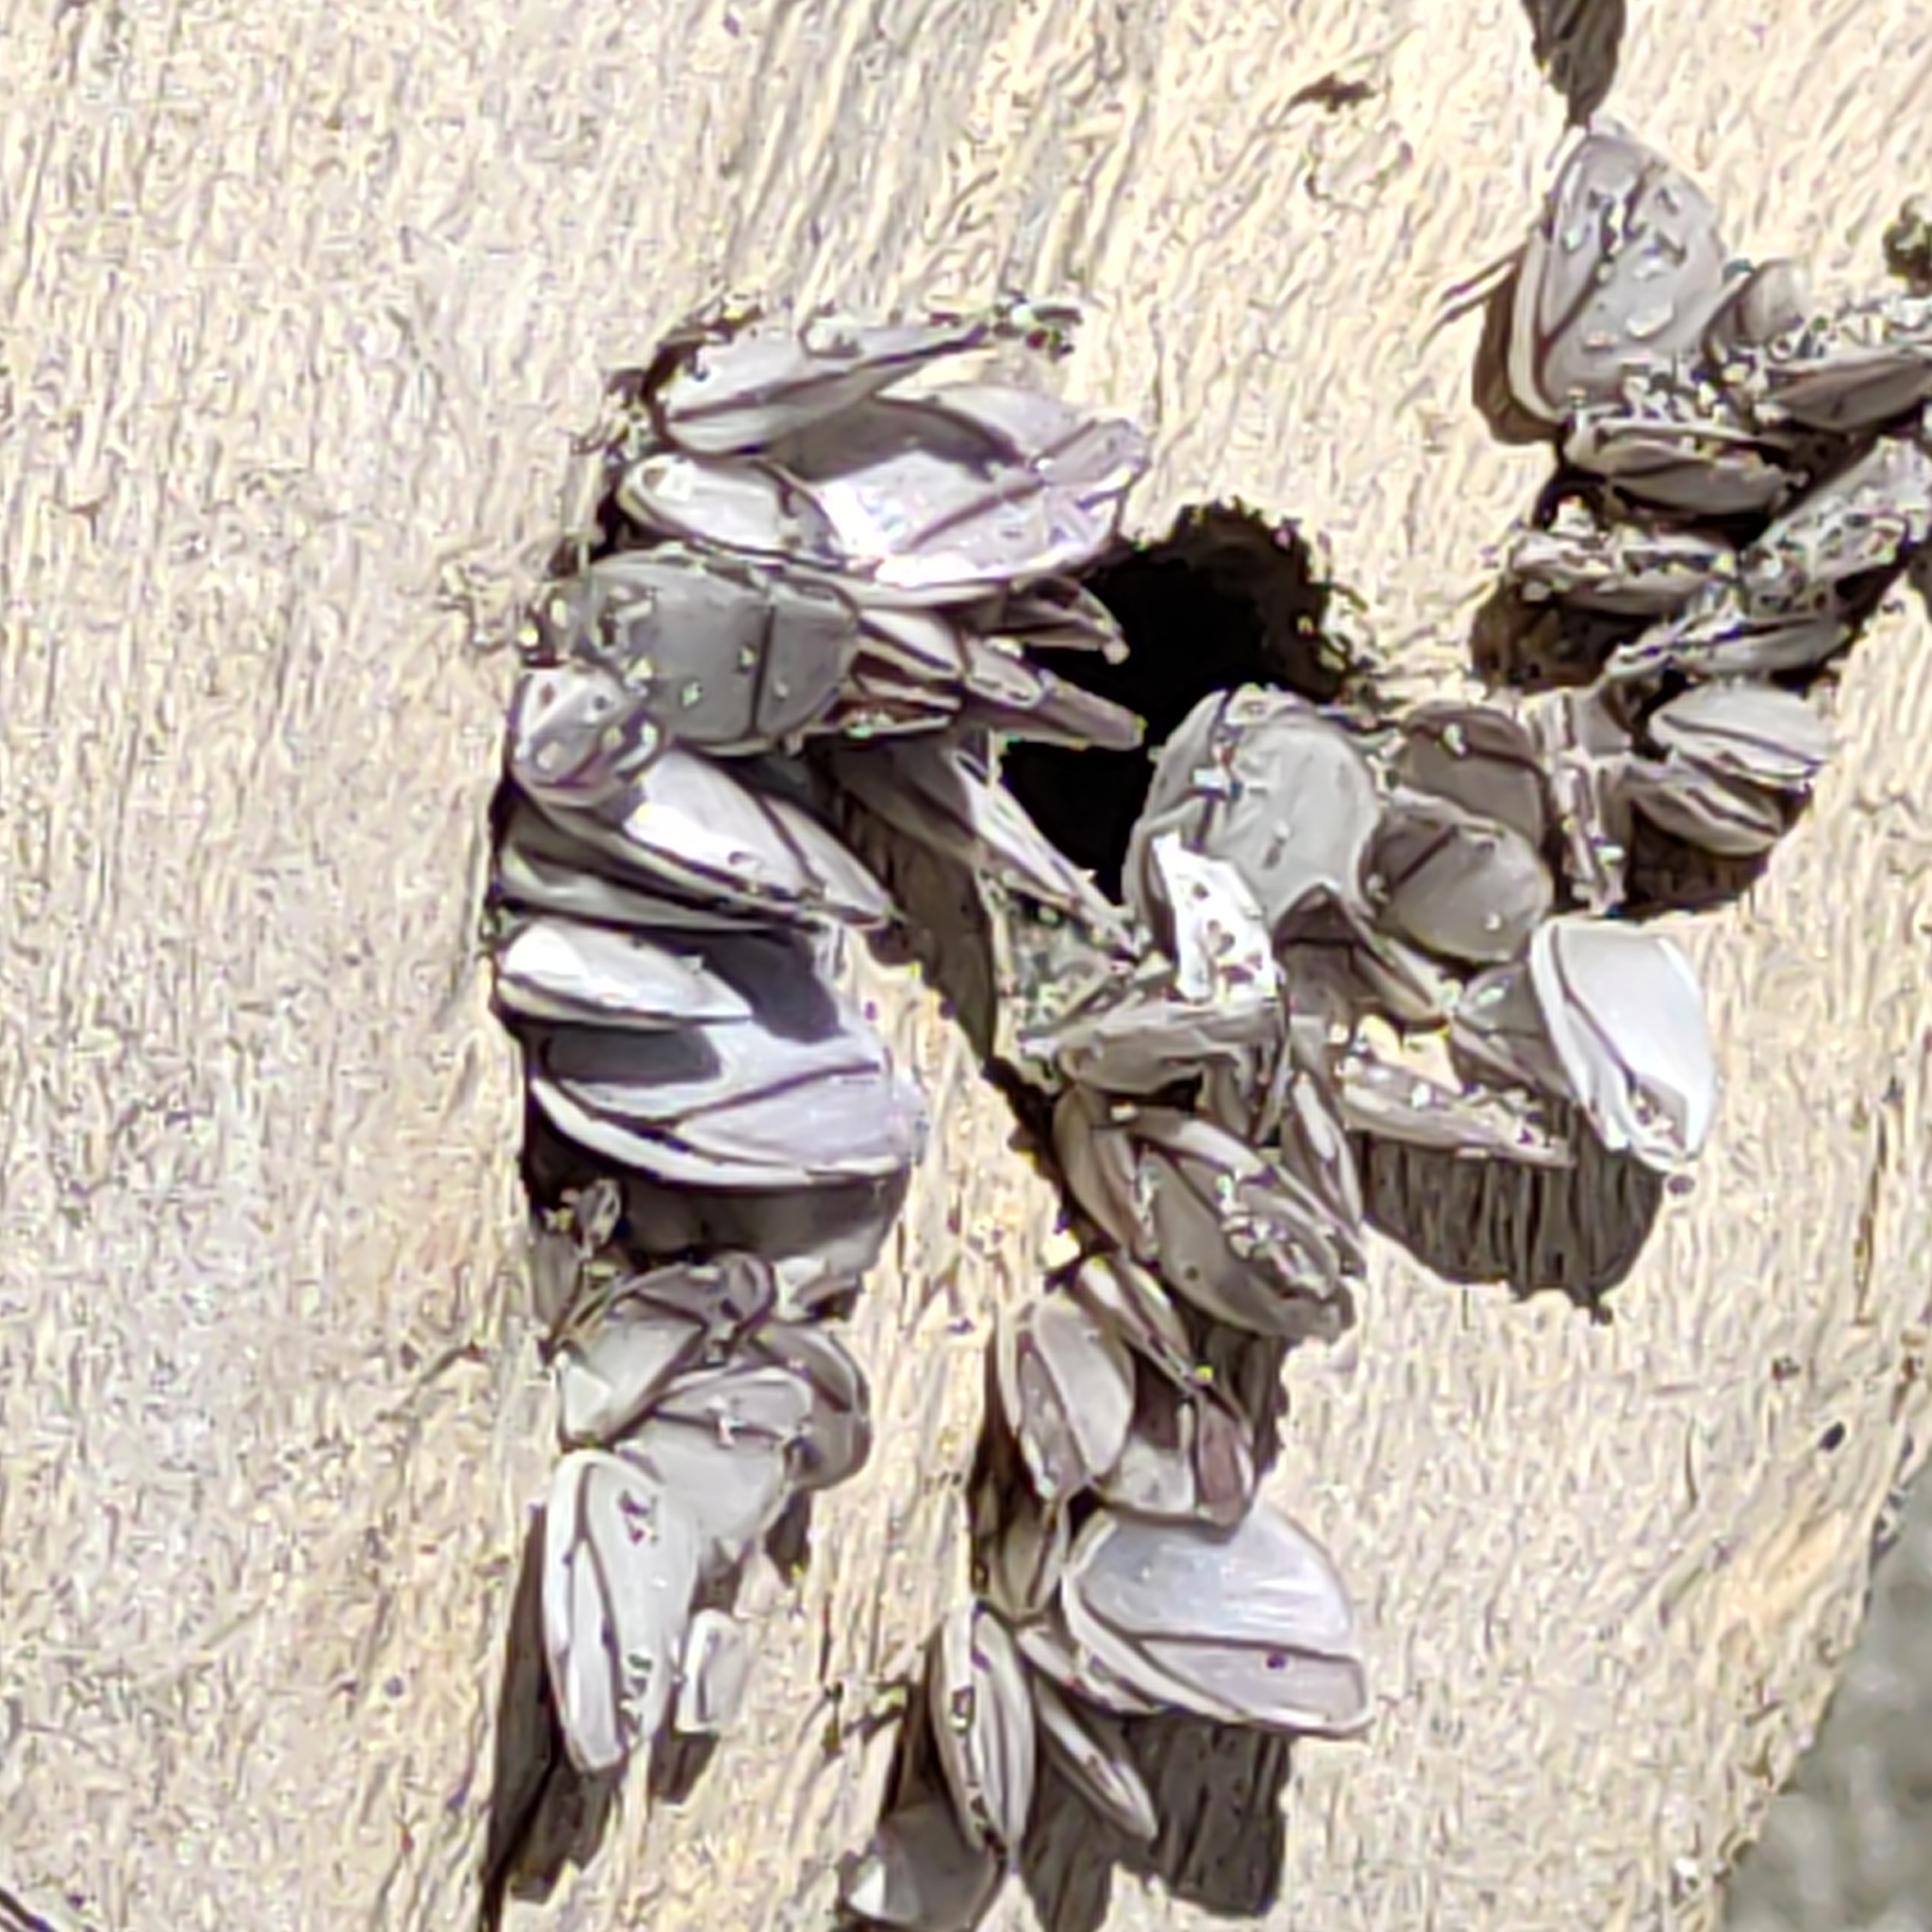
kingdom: Animalia
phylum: Arthropoda
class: Maxillopoda
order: Pedunculata
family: Lepadidae
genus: Lepas
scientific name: Lepas anatifera
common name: Common goose barnacle
